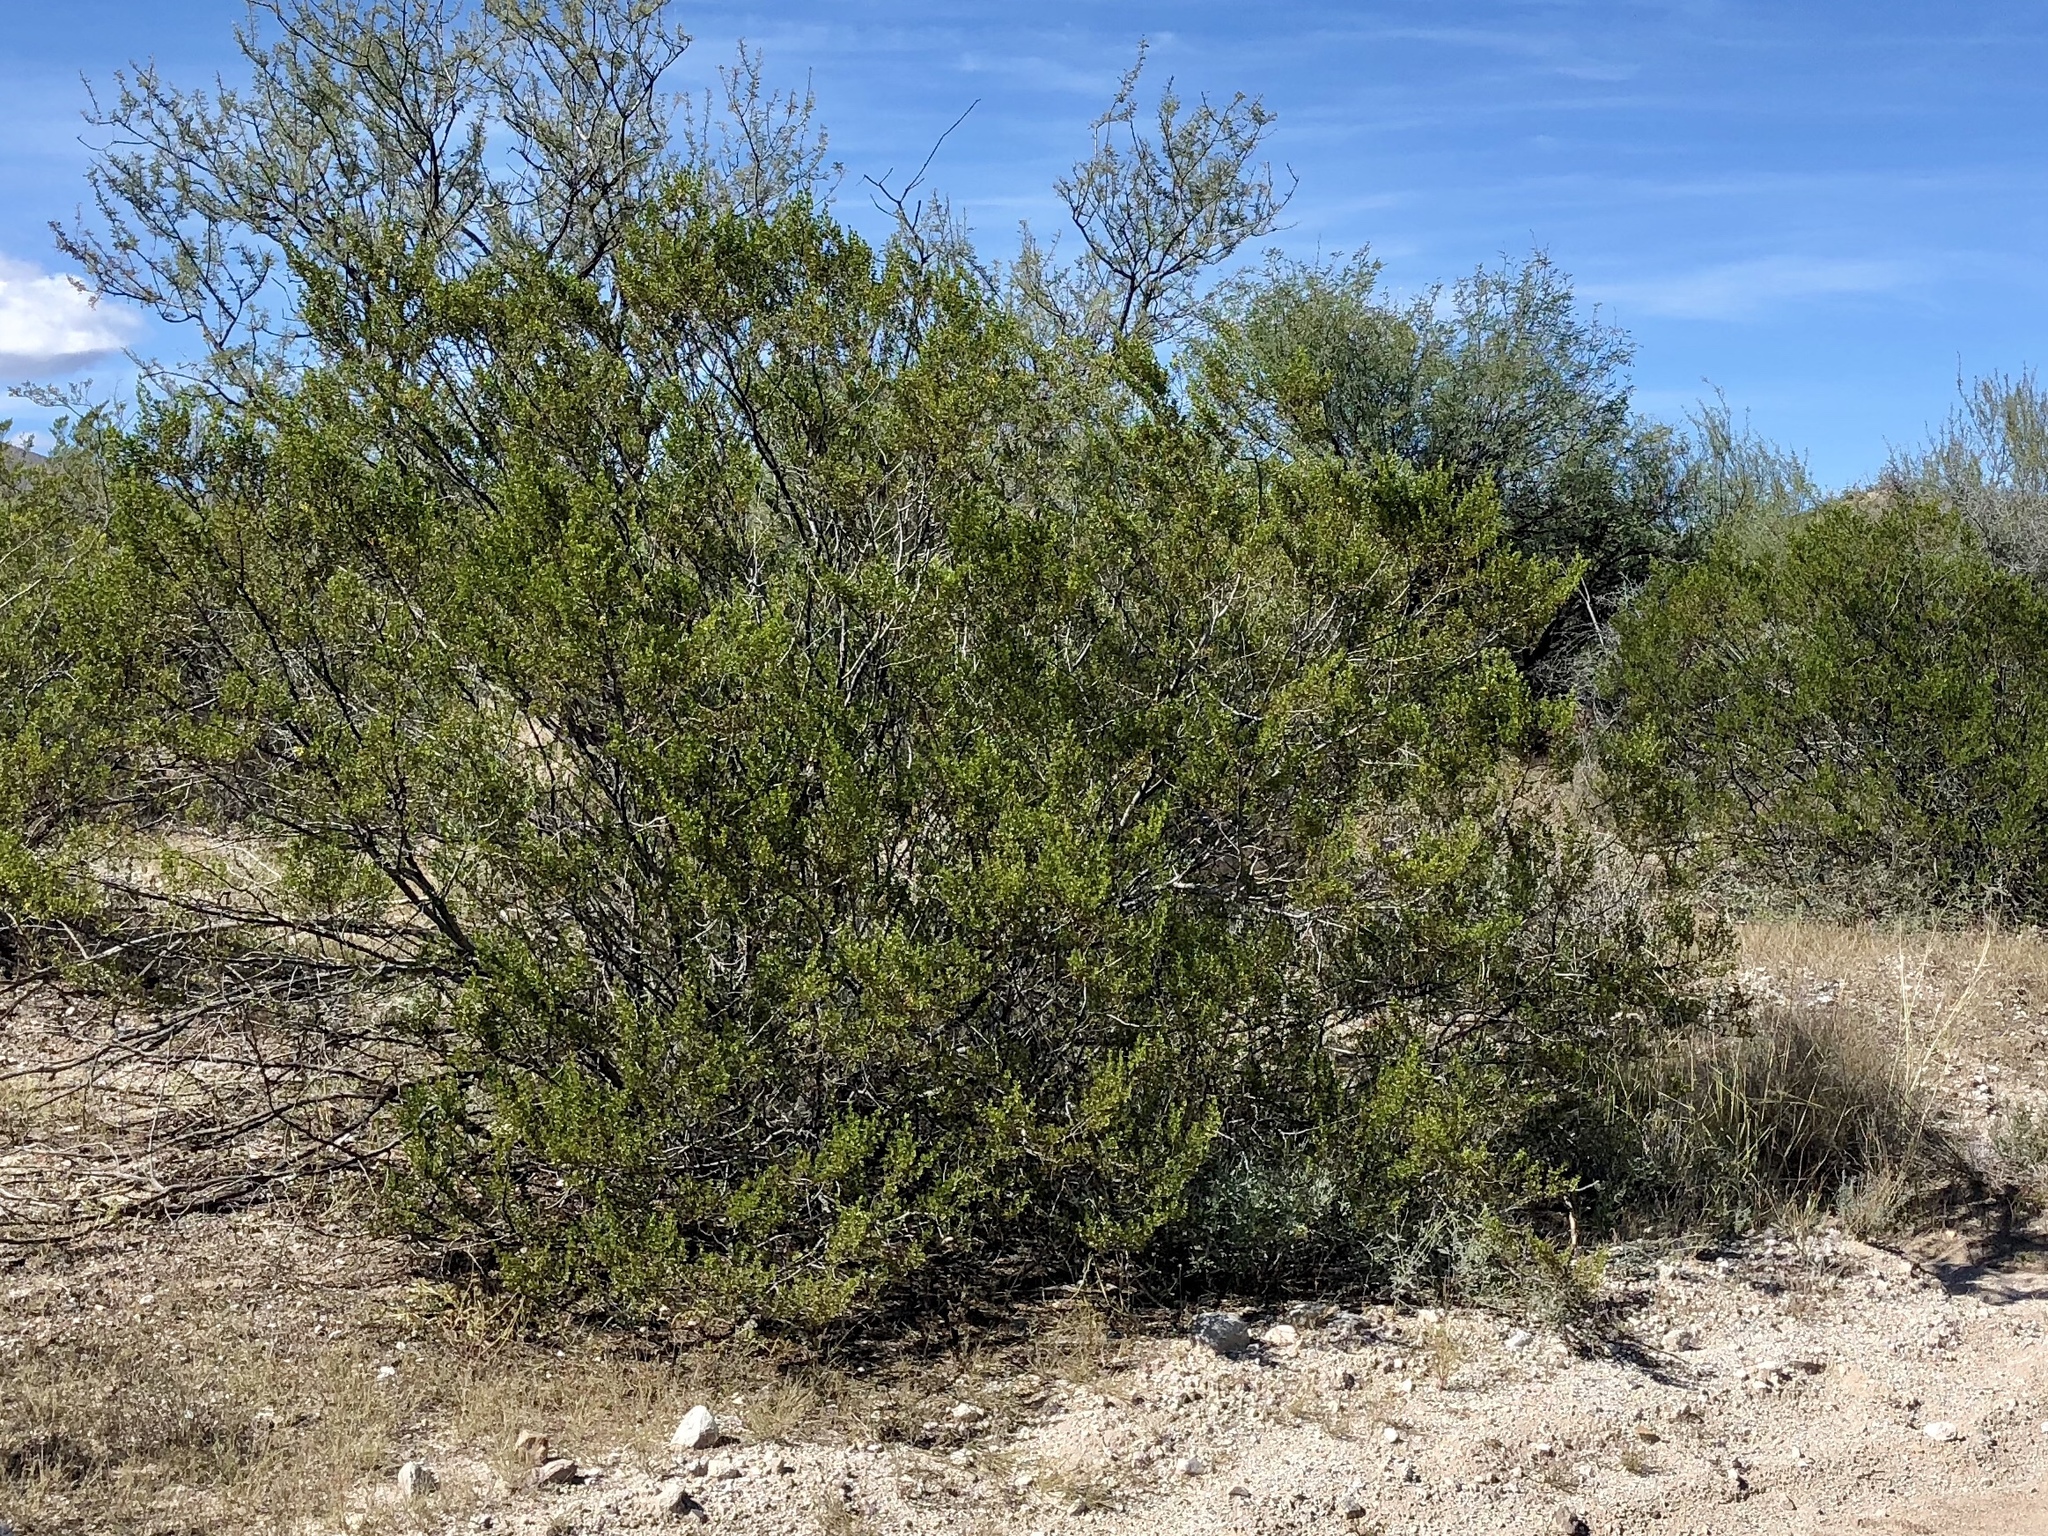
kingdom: Plantae
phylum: Tracheophyta
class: Magnoliopsida
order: Zygophyllales
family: Zygophyllaceae
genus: Larrea
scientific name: Larrea tridentata
